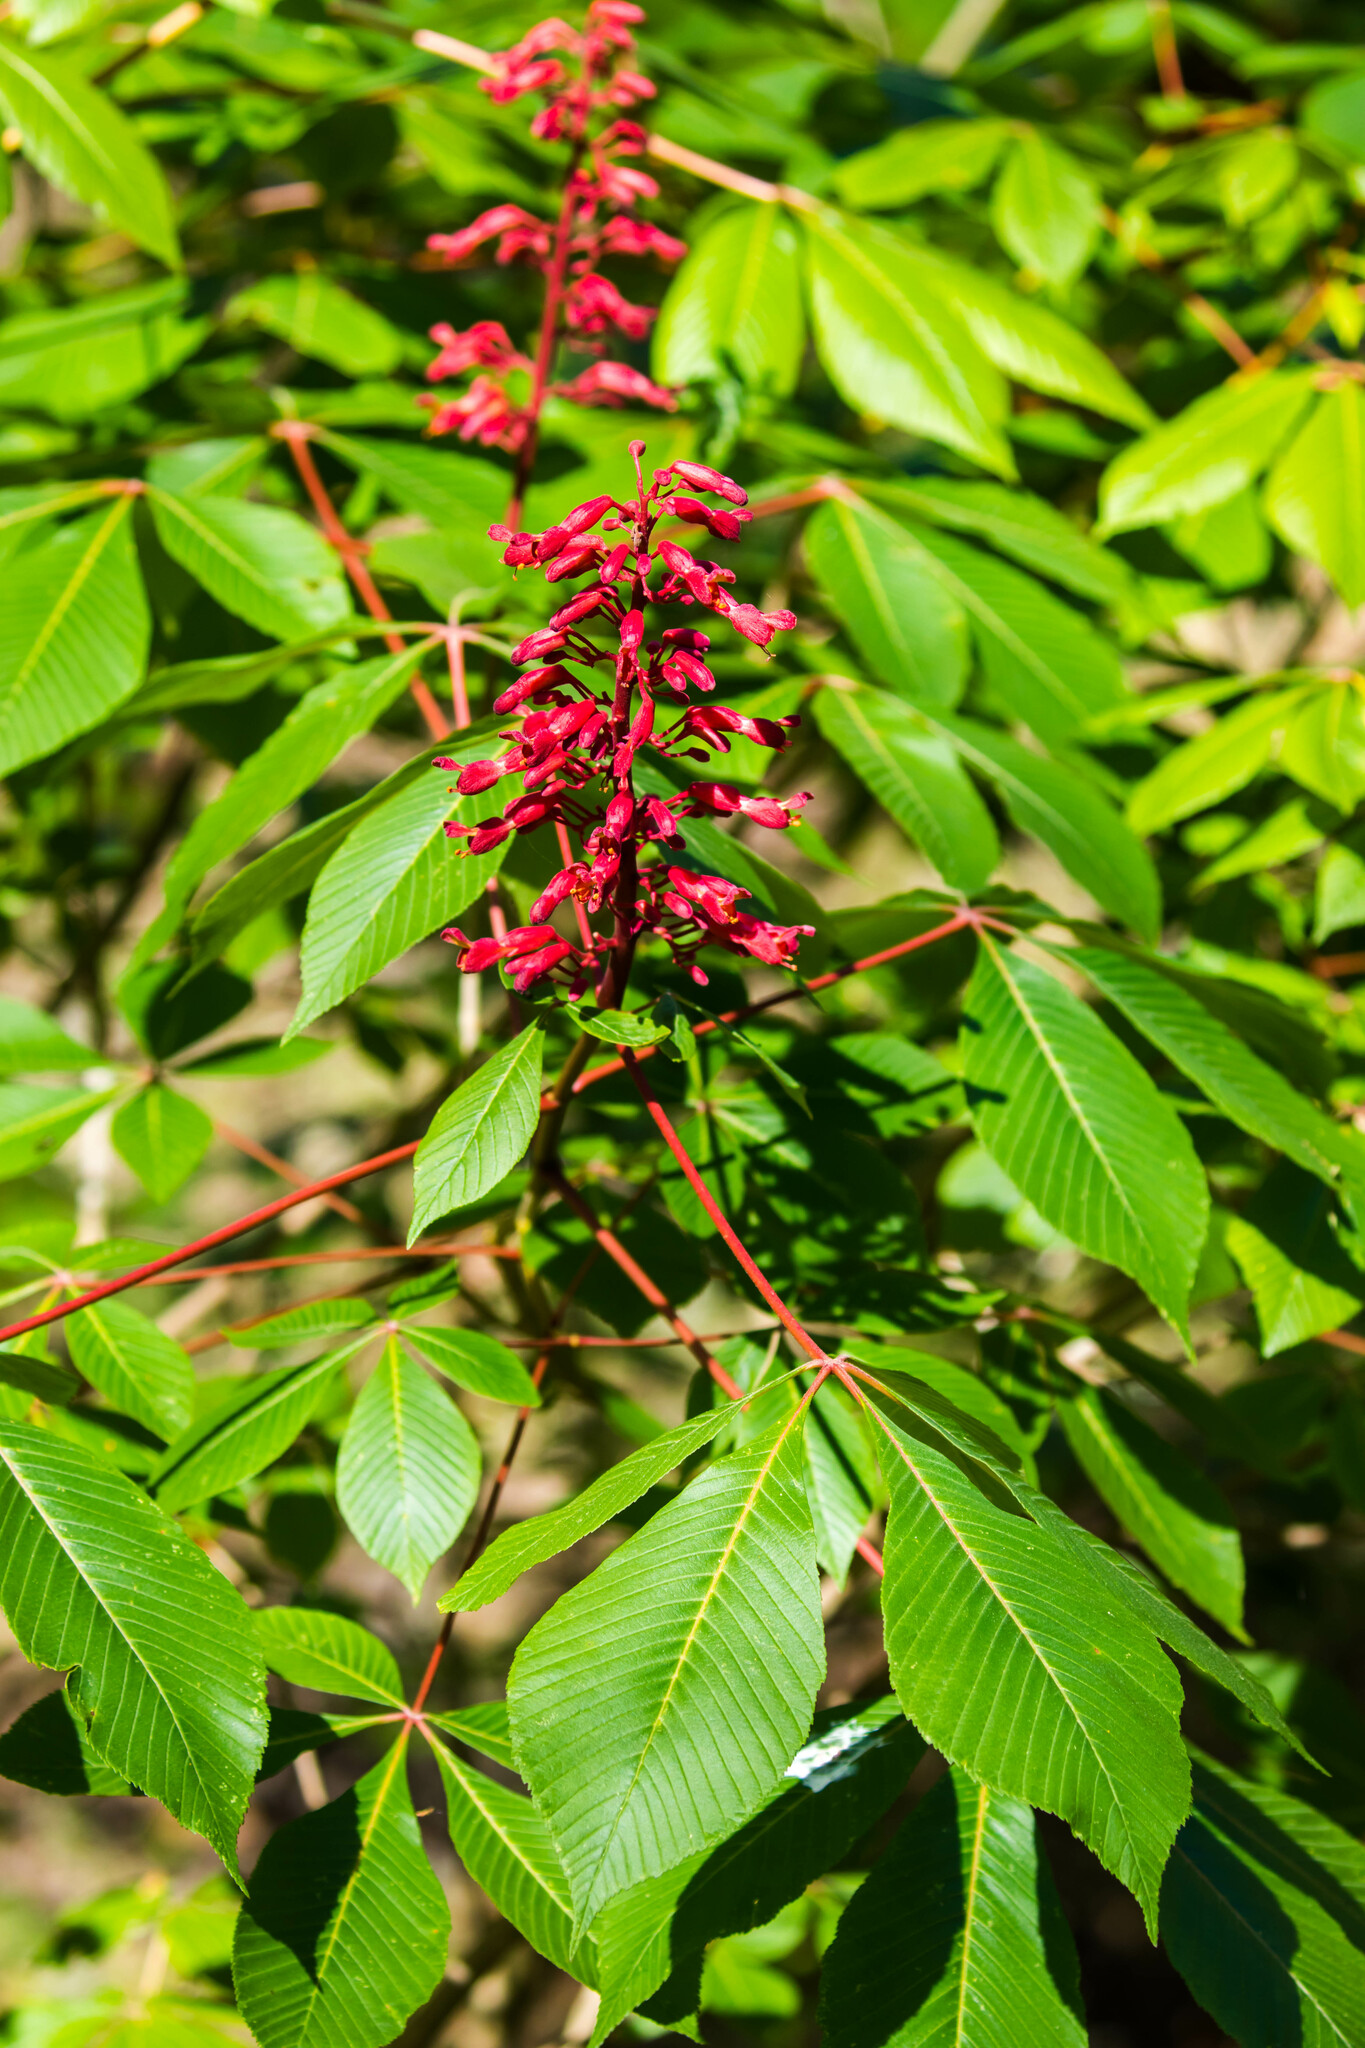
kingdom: Plantae
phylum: Tracheophyta
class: Magnoliopsida
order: Sapindales
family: Sapindaceae
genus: Aesculus
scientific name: Aesculus pavia
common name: Red buckeye
